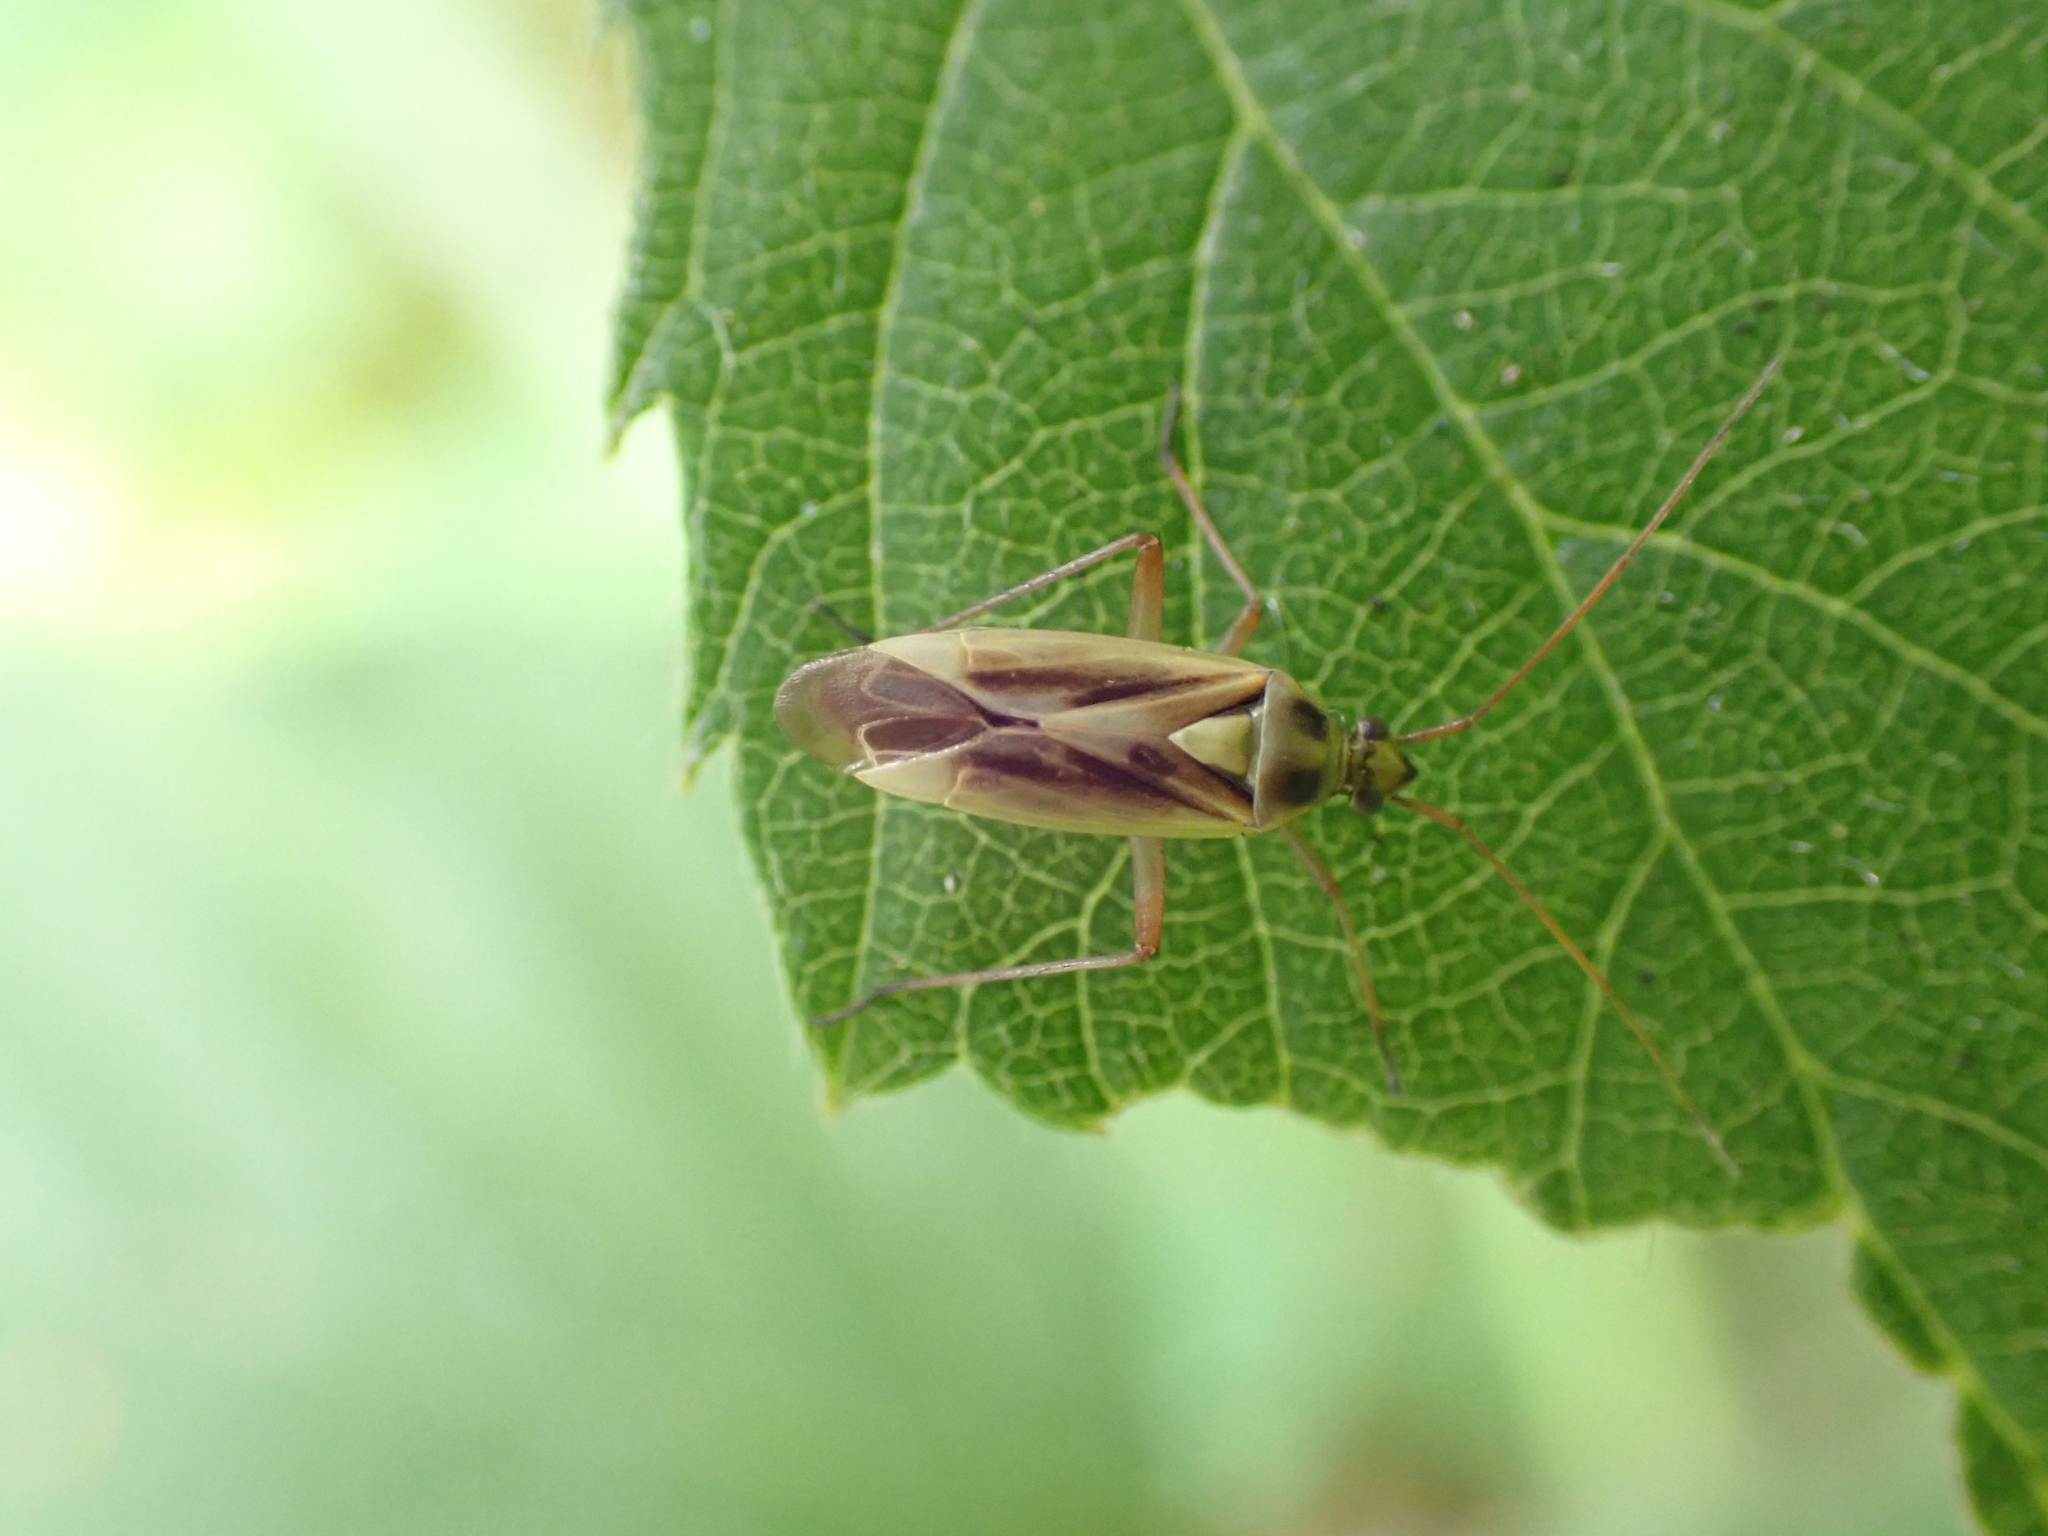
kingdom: Animalia
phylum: Arthropoda
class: Insecta
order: Hemiptera
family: Miridae
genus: Stenotus
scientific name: Stenotus binotatus
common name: Plant bug
